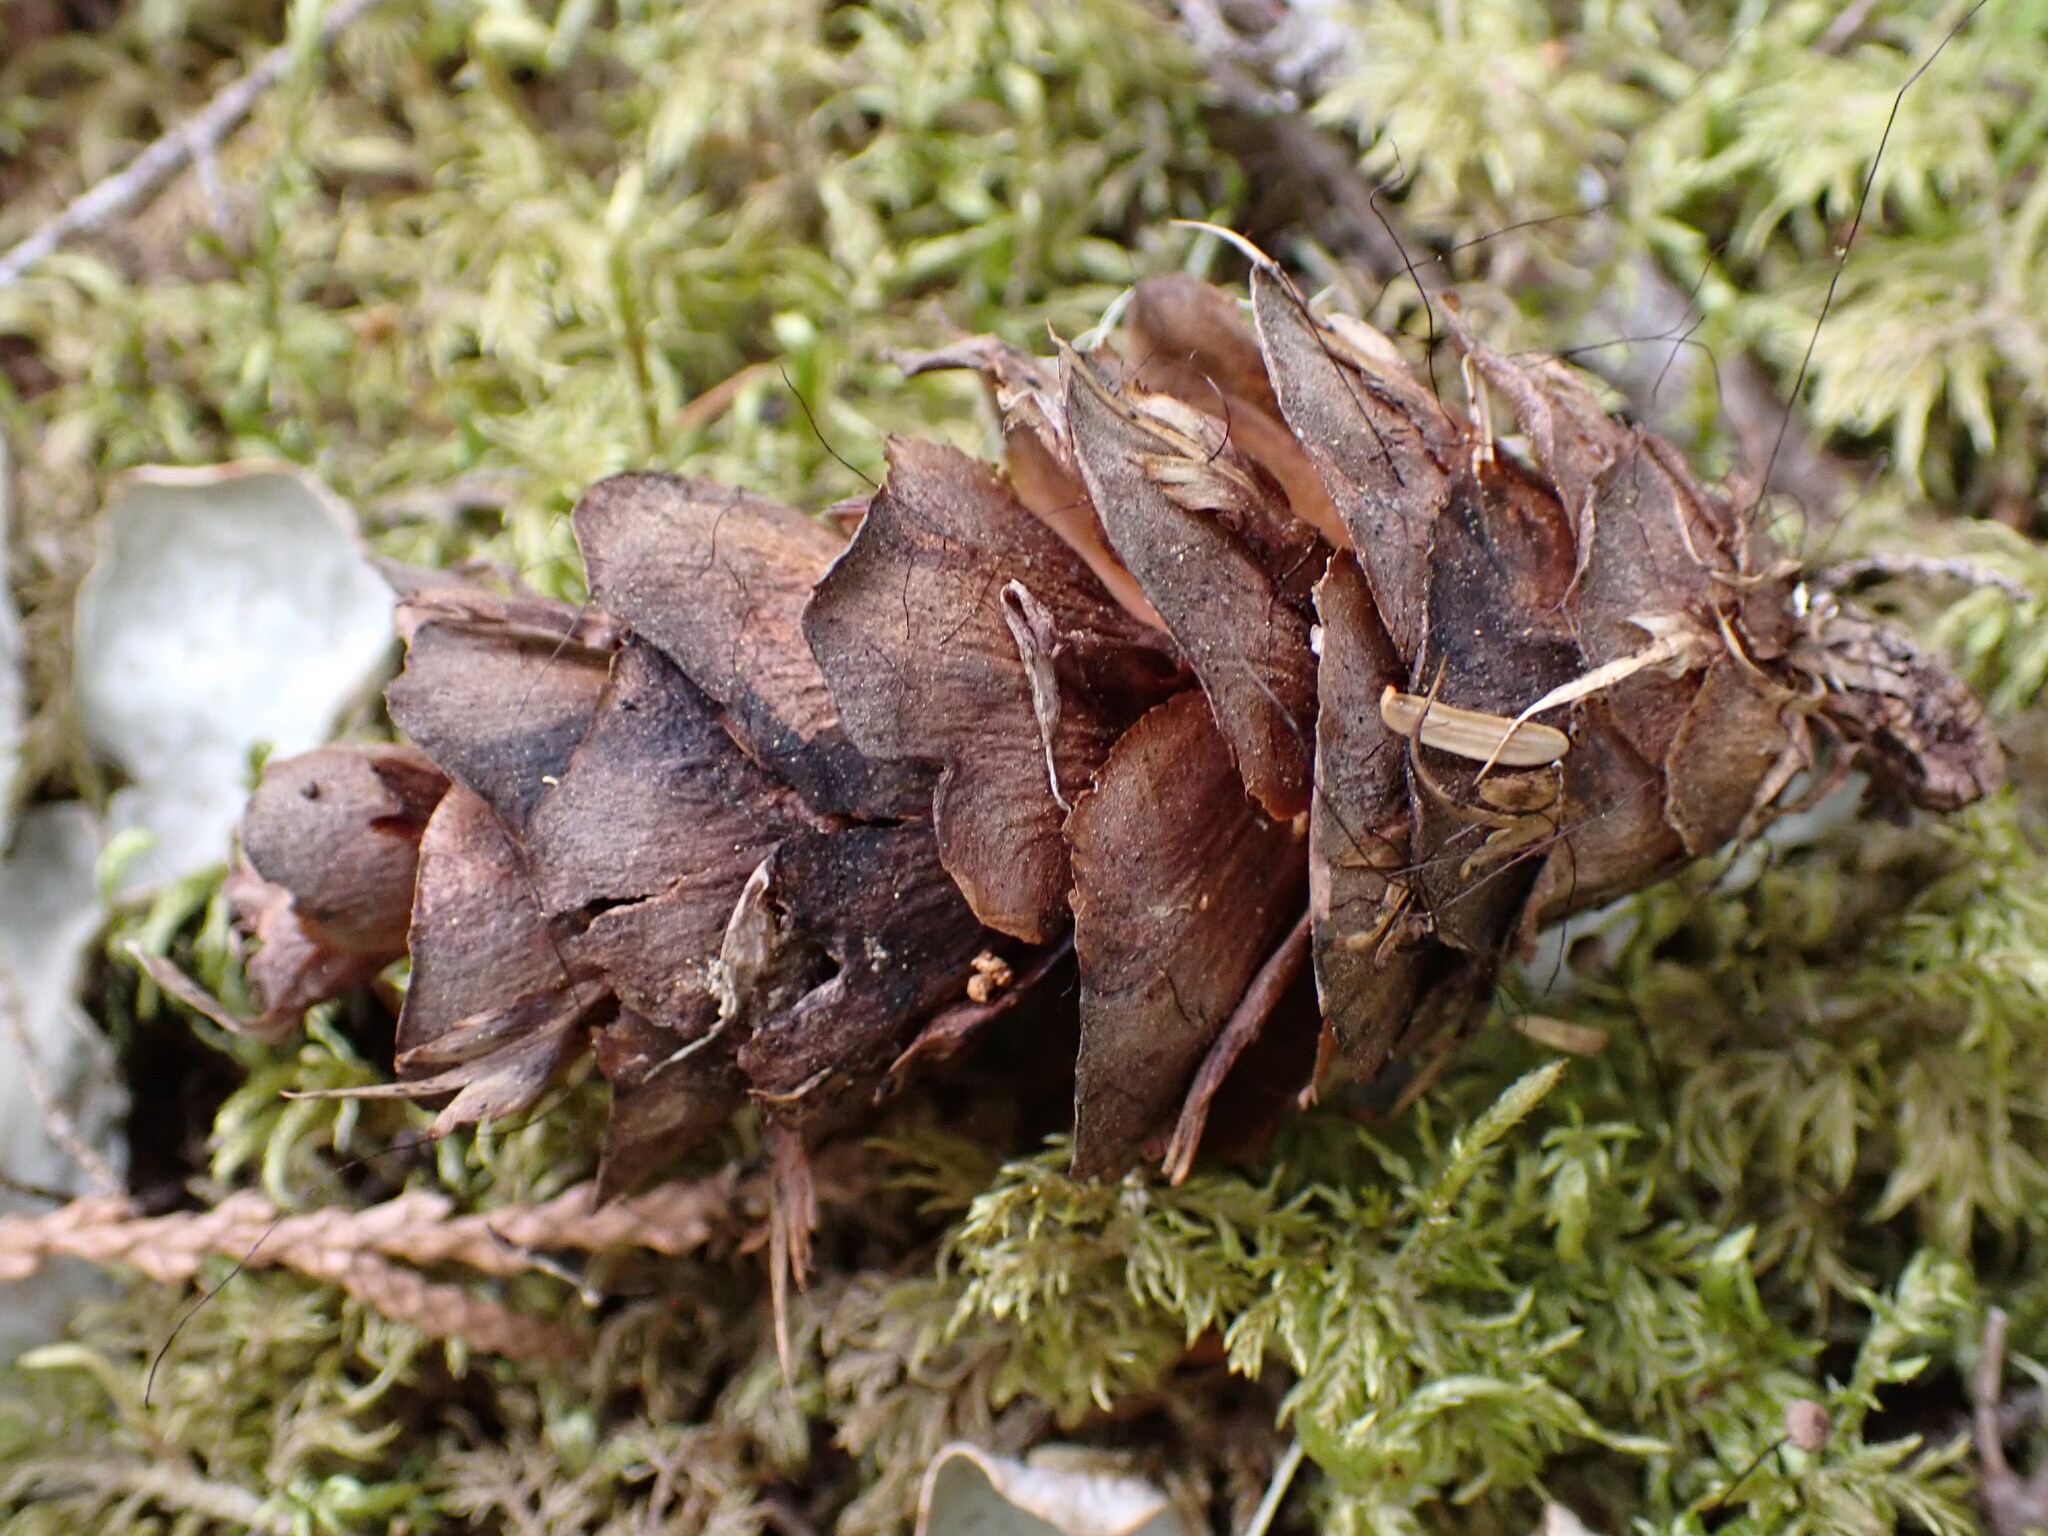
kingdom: Plantae
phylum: Tracheophyta
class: Pinopsida
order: Pinales
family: Pinaceae
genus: Pseudotsuga
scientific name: Pseudotsuga menziesii
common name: Douglas fir
